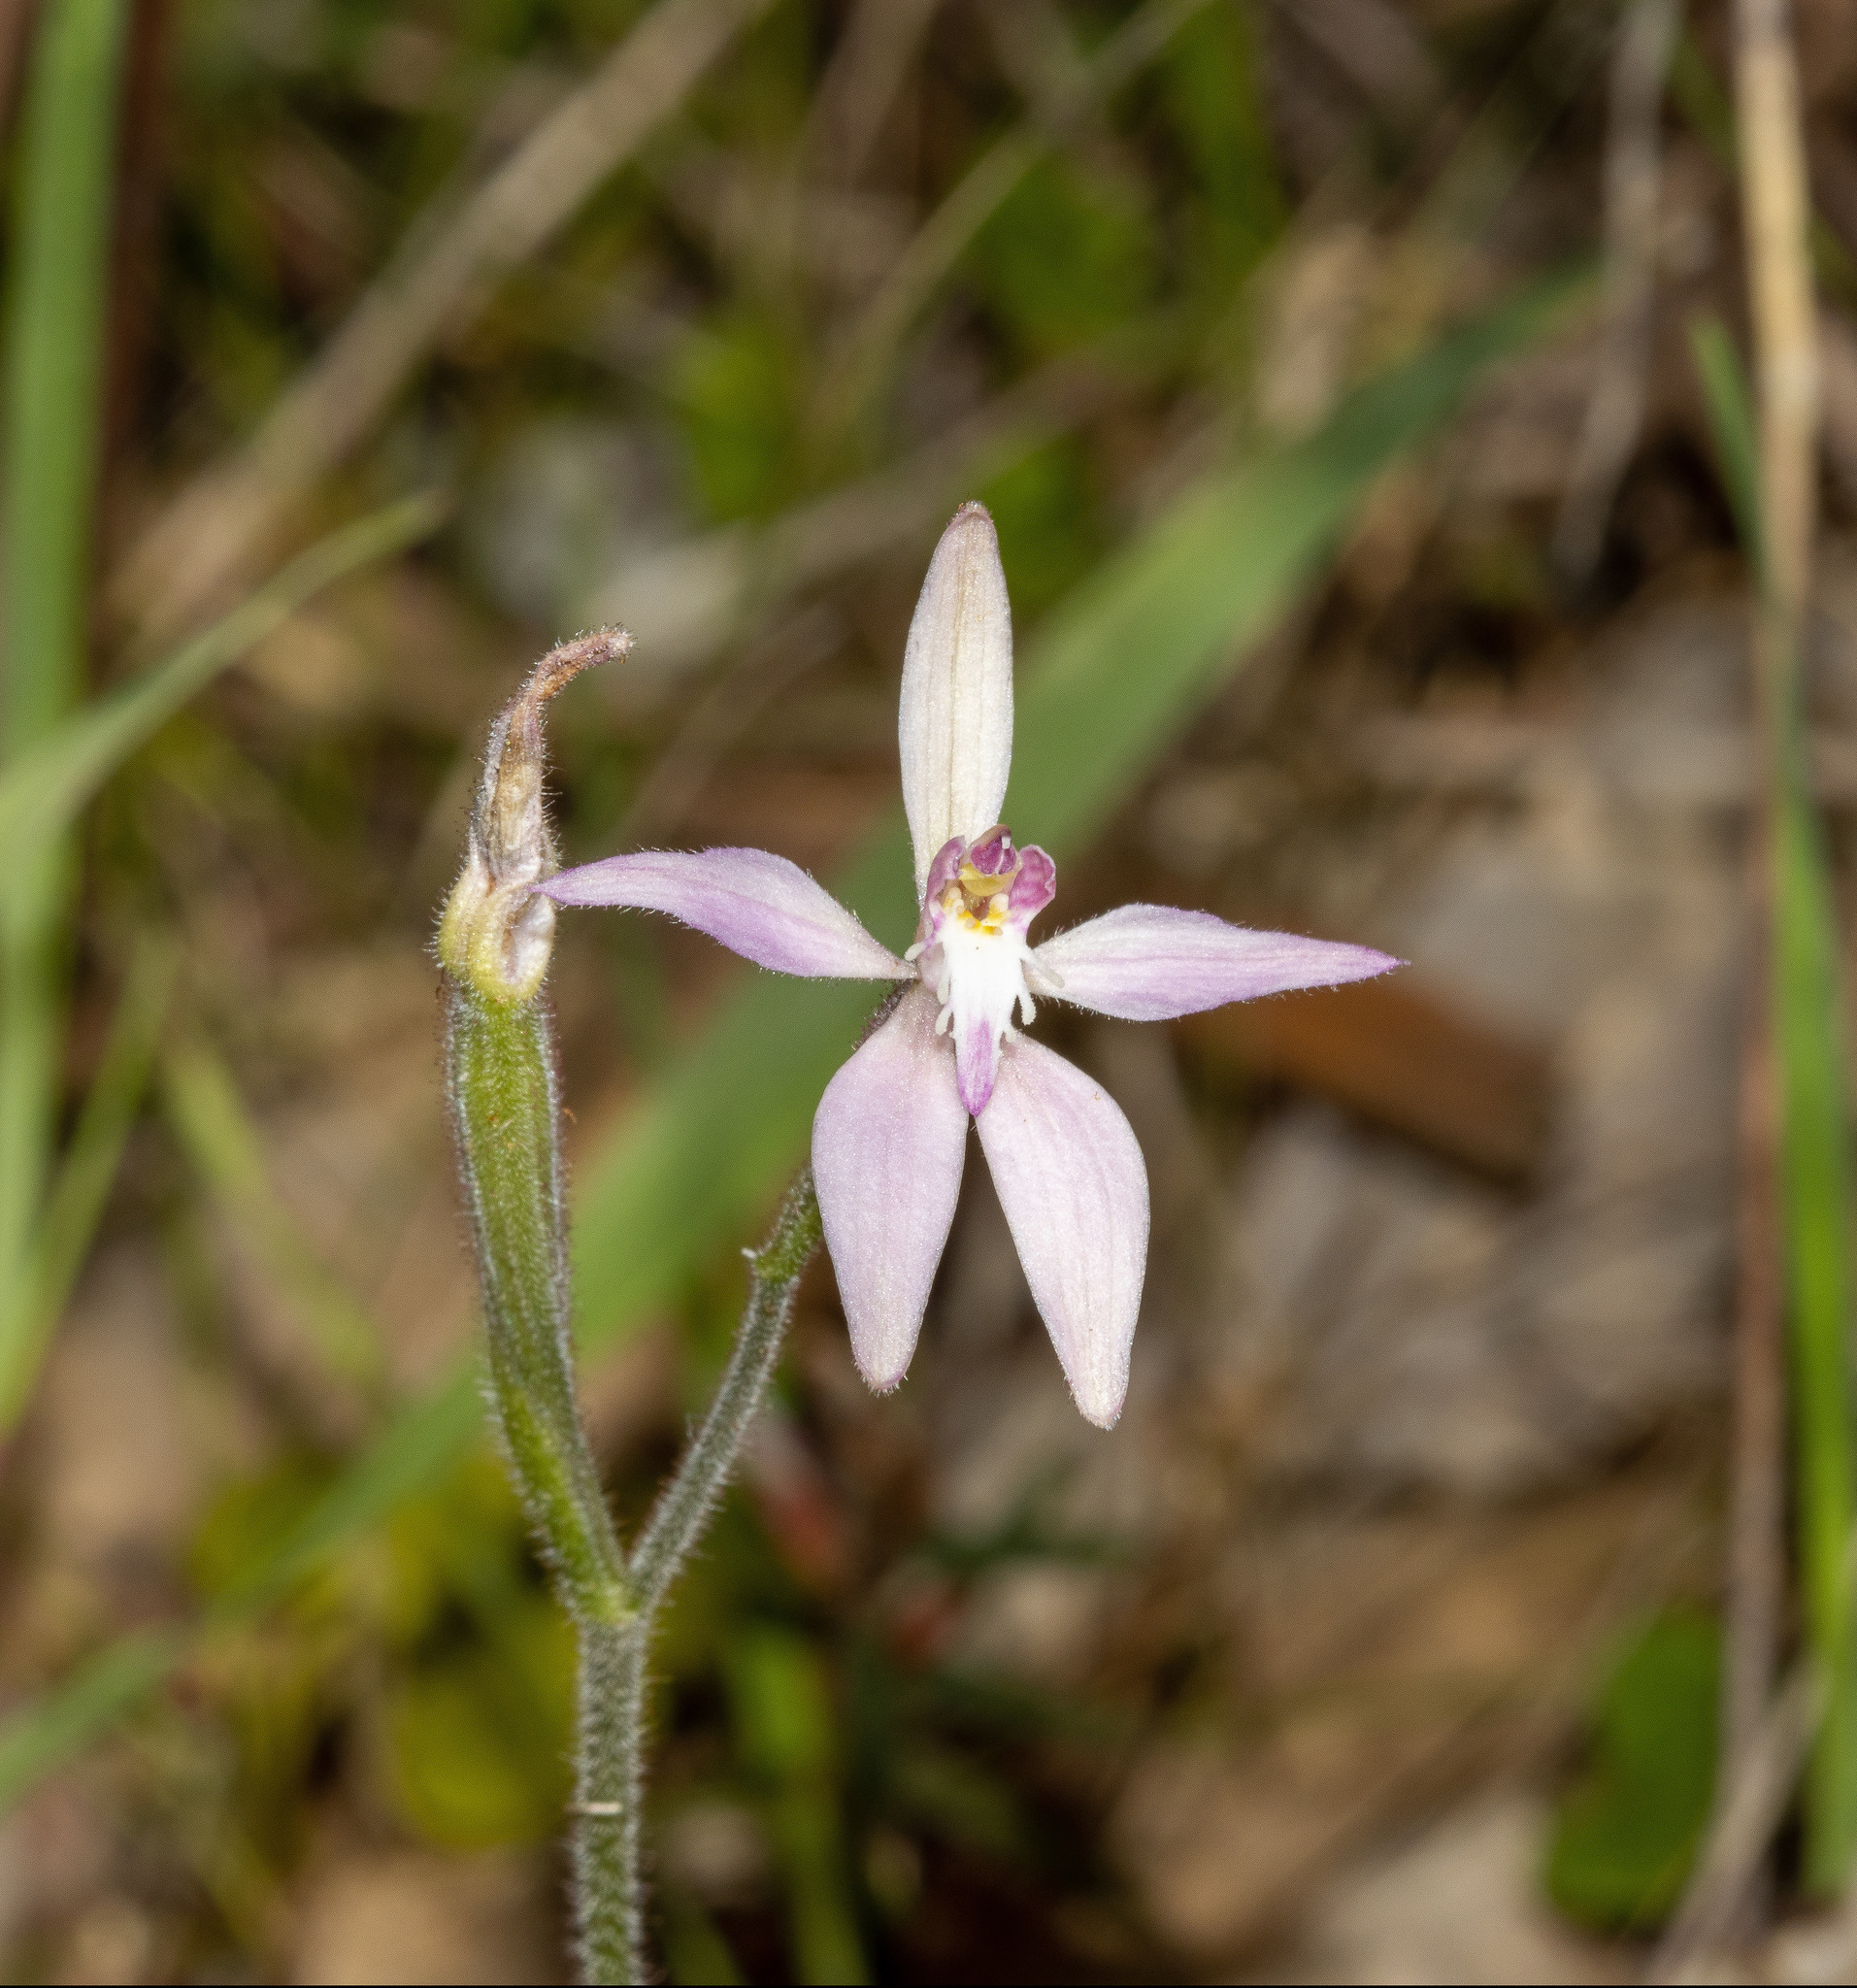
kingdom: Plantae
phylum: Tracheophyta
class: Liliopsida
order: Asparagales
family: Orchidaceae
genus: Caladenia
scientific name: Caladenia latifolia
